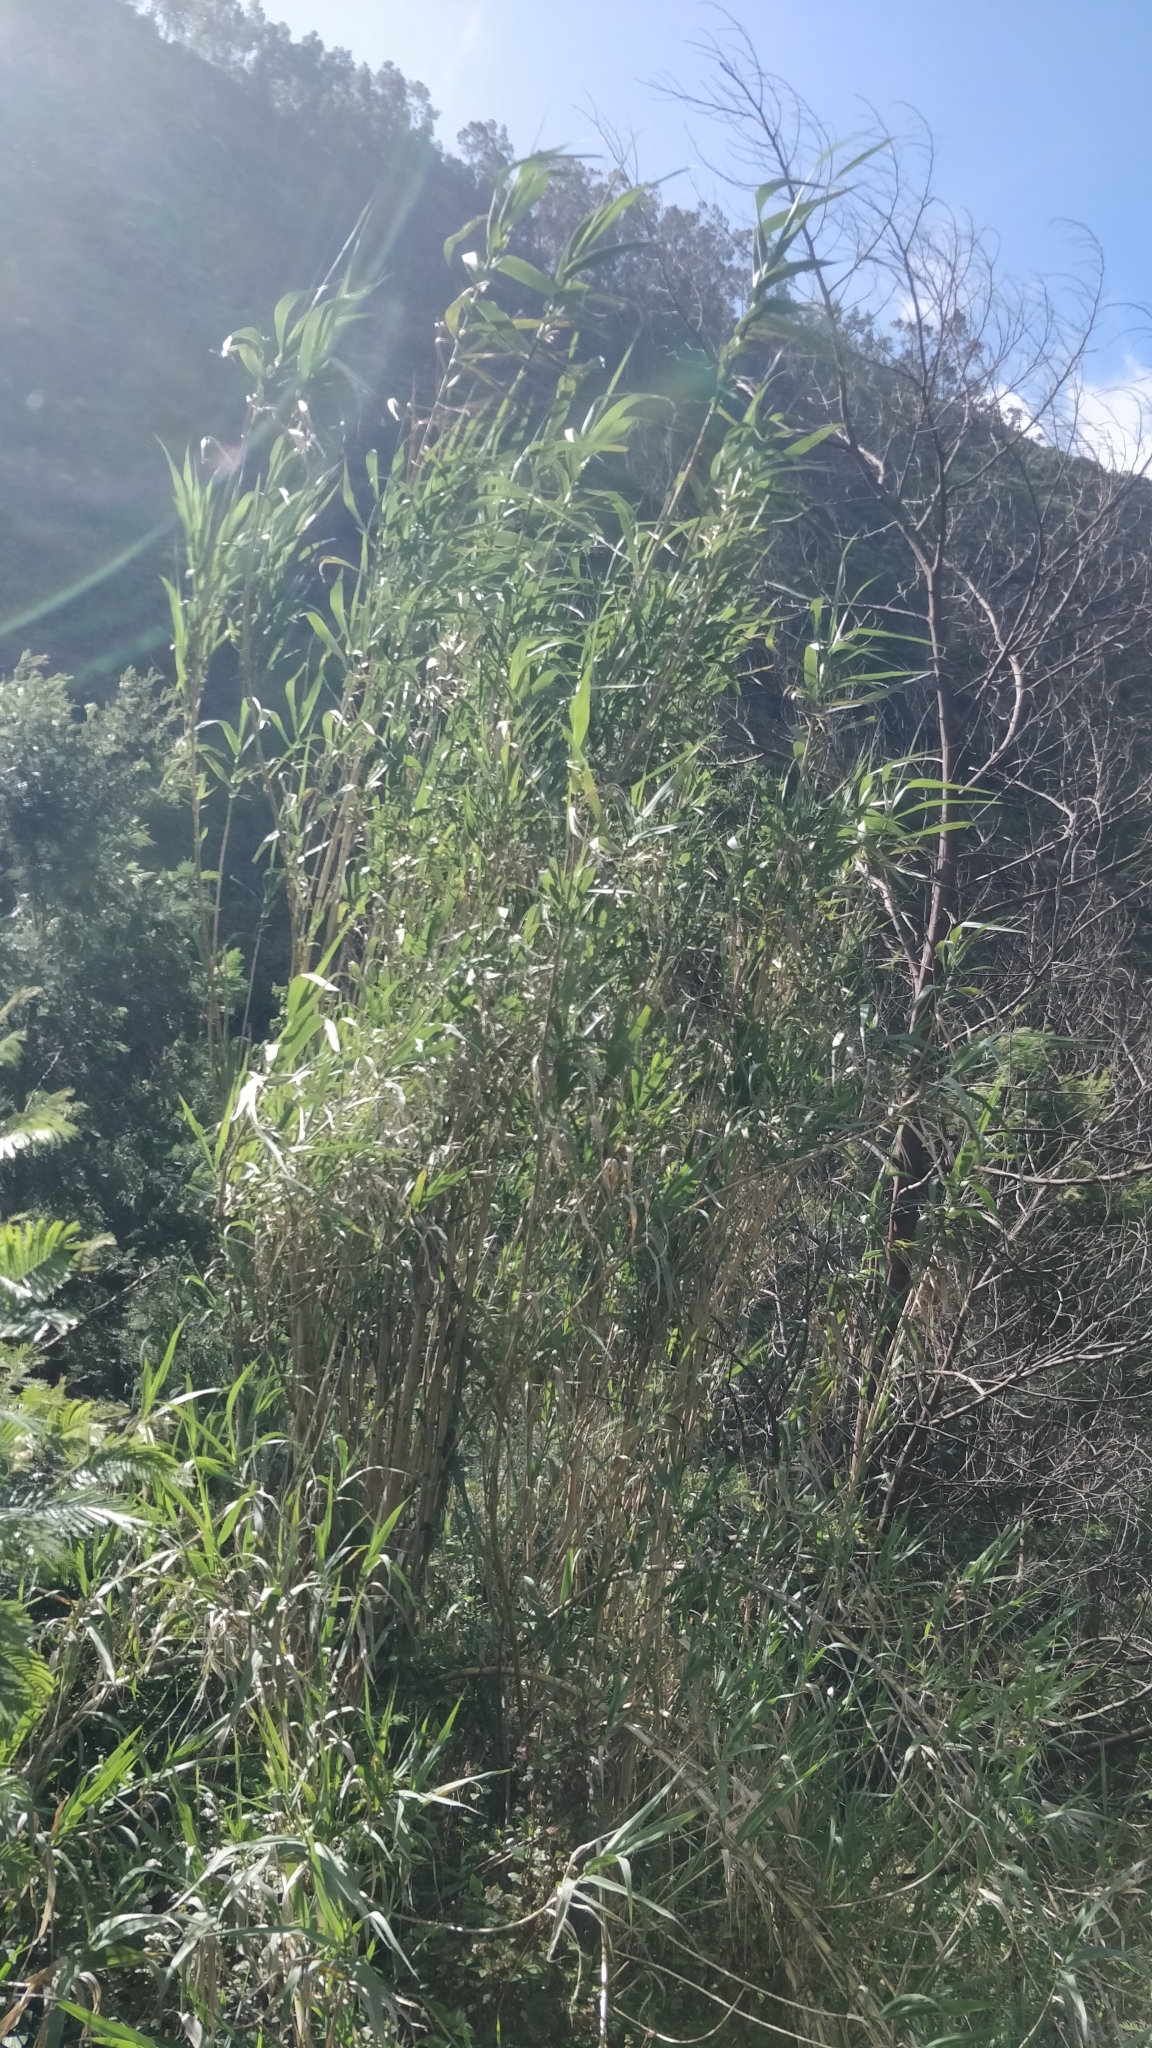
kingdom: Plantae
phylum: Tracheophyta
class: Liliopsida
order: Poales
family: Poaceae
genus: Arundo
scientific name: Arundo donax
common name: Giant reed
